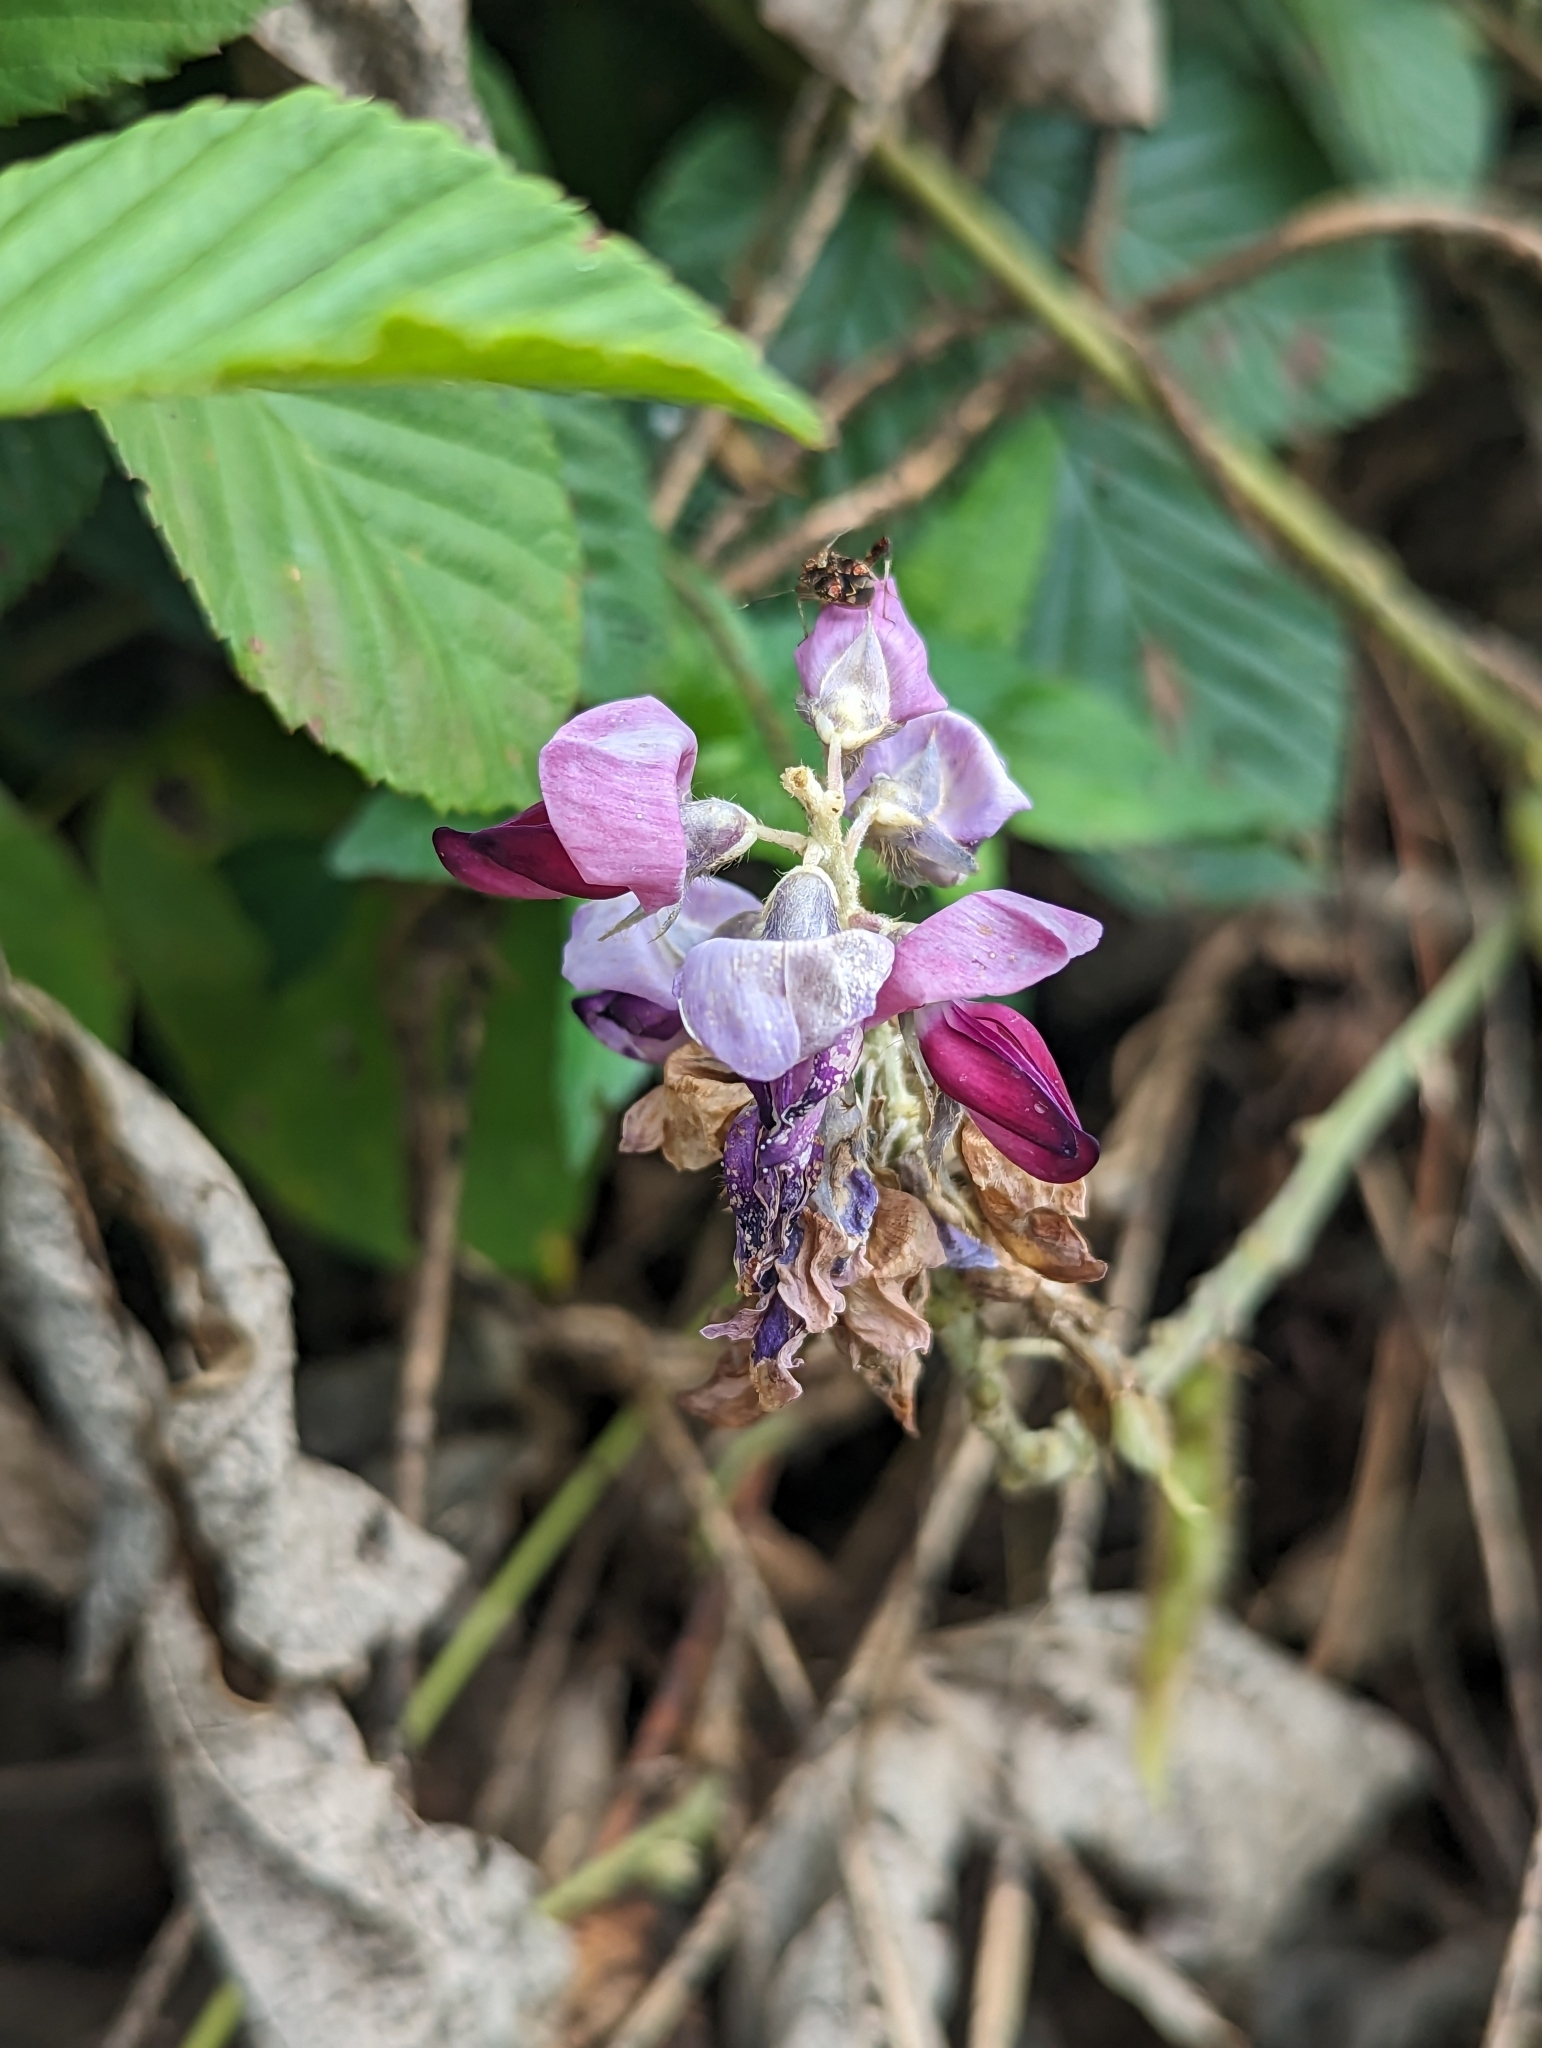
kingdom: Plantae
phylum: Tracheophyta
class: Magnoliopsida
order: Fabales
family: Fabaceae
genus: Pueraria
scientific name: Pueraria montana
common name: Kudzu
